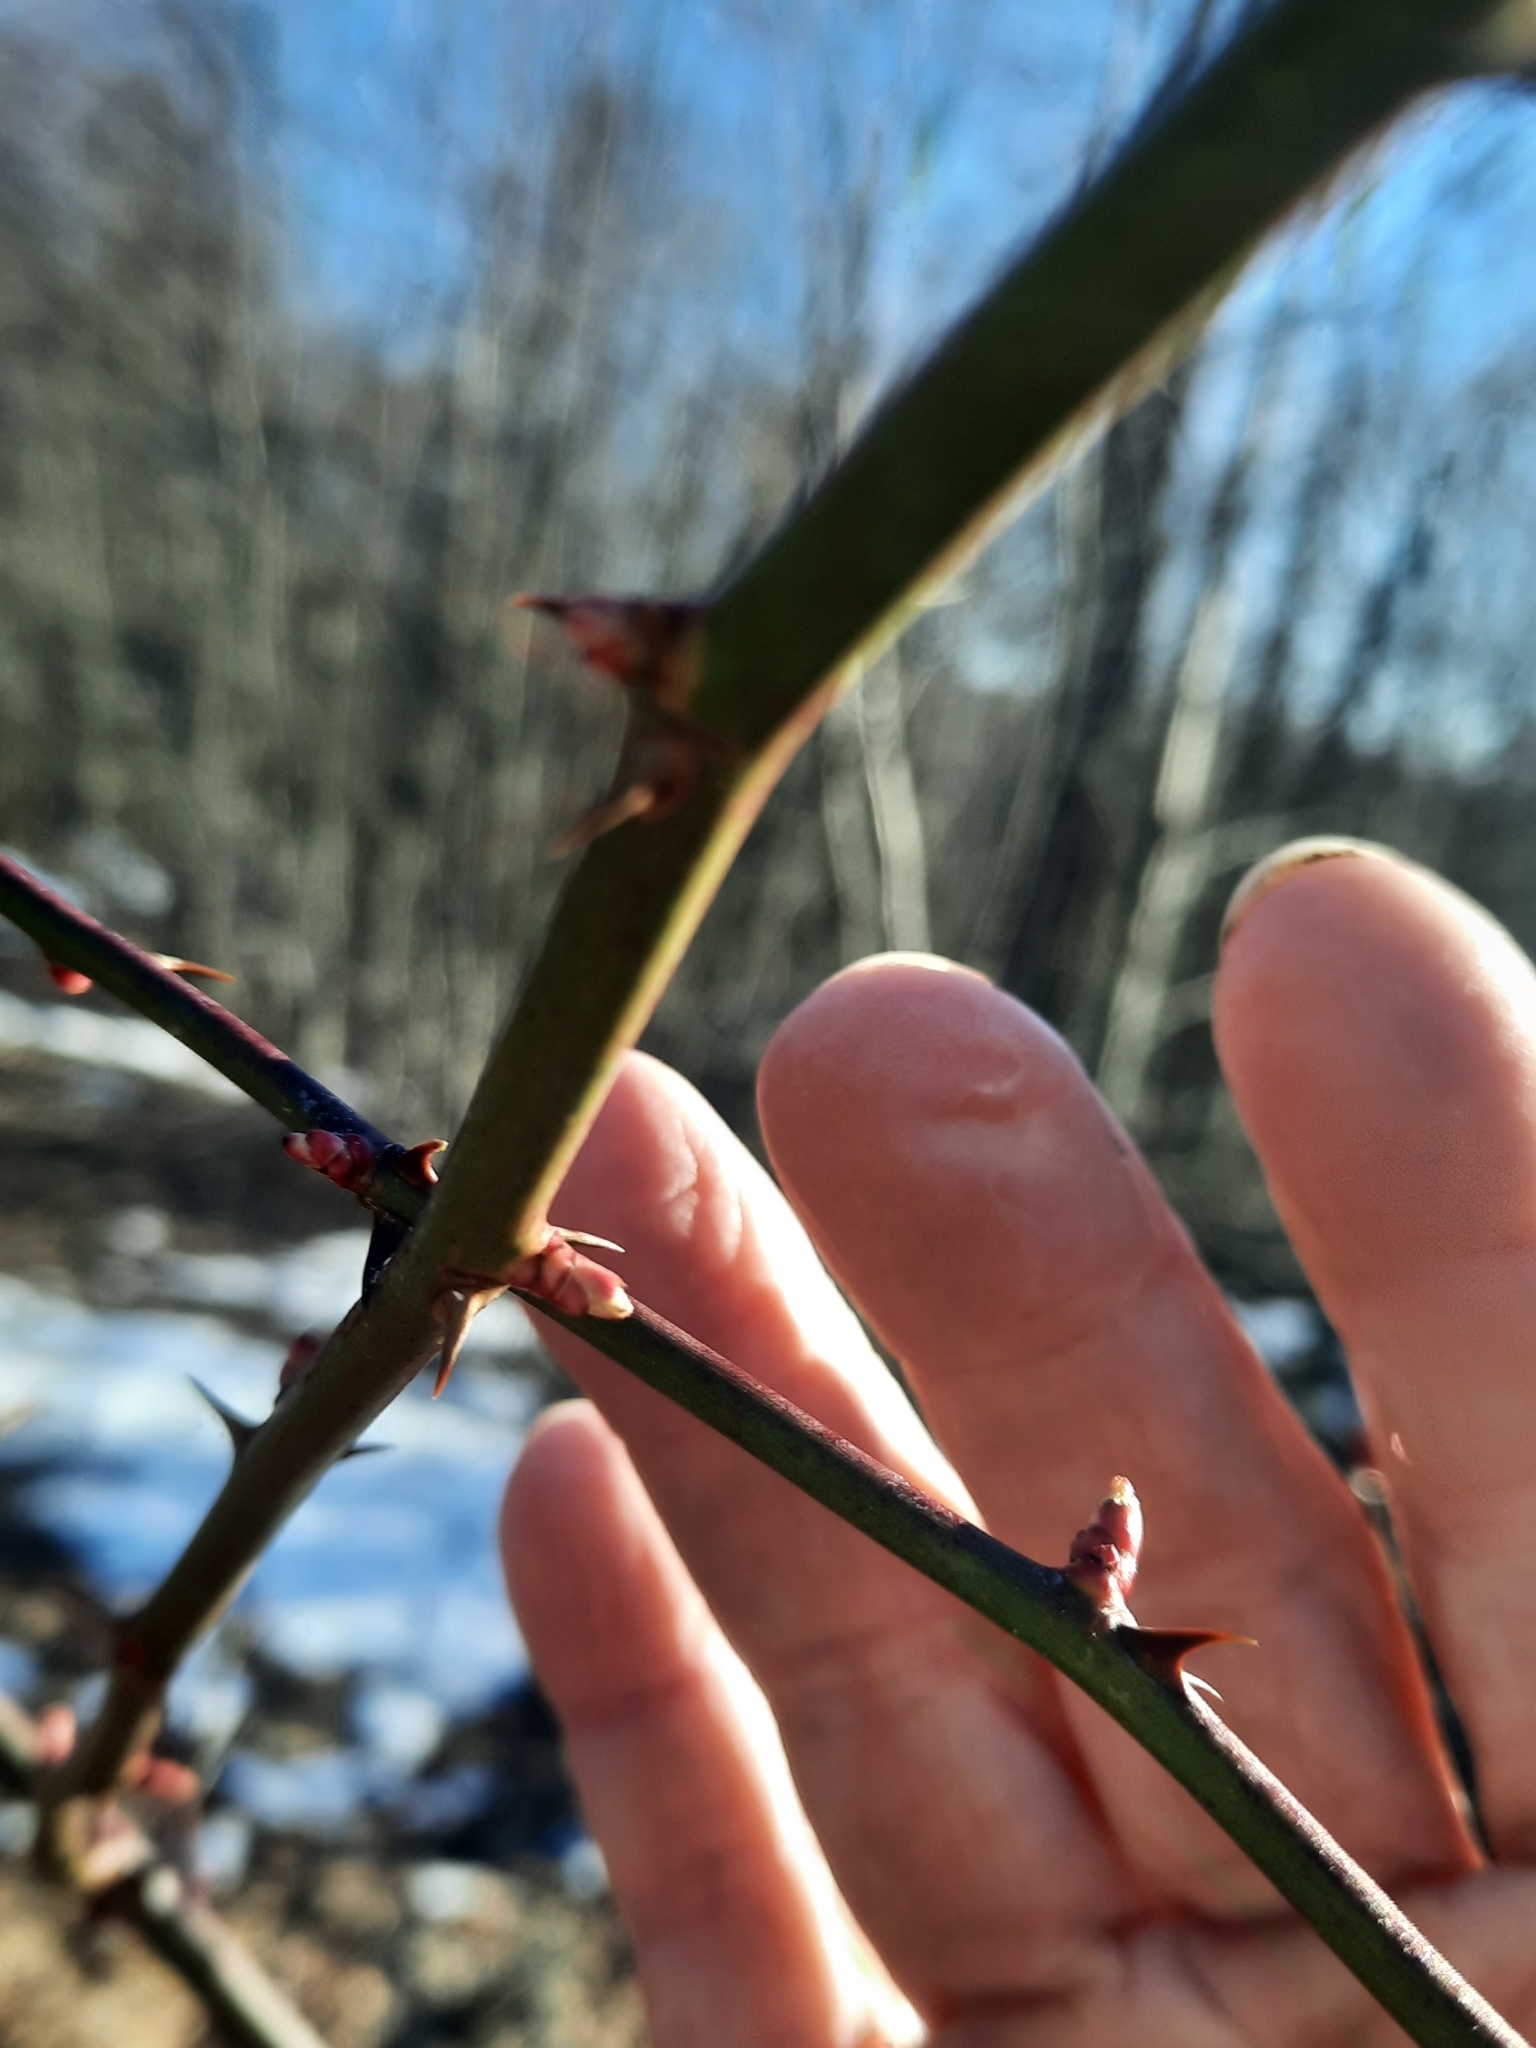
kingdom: Plantae
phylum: Tracheophyta
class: Magnoliopsida
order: Rosales
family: Rosaceae
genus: Rosa
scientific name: Rosa multiflora
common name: Multiflora rose
